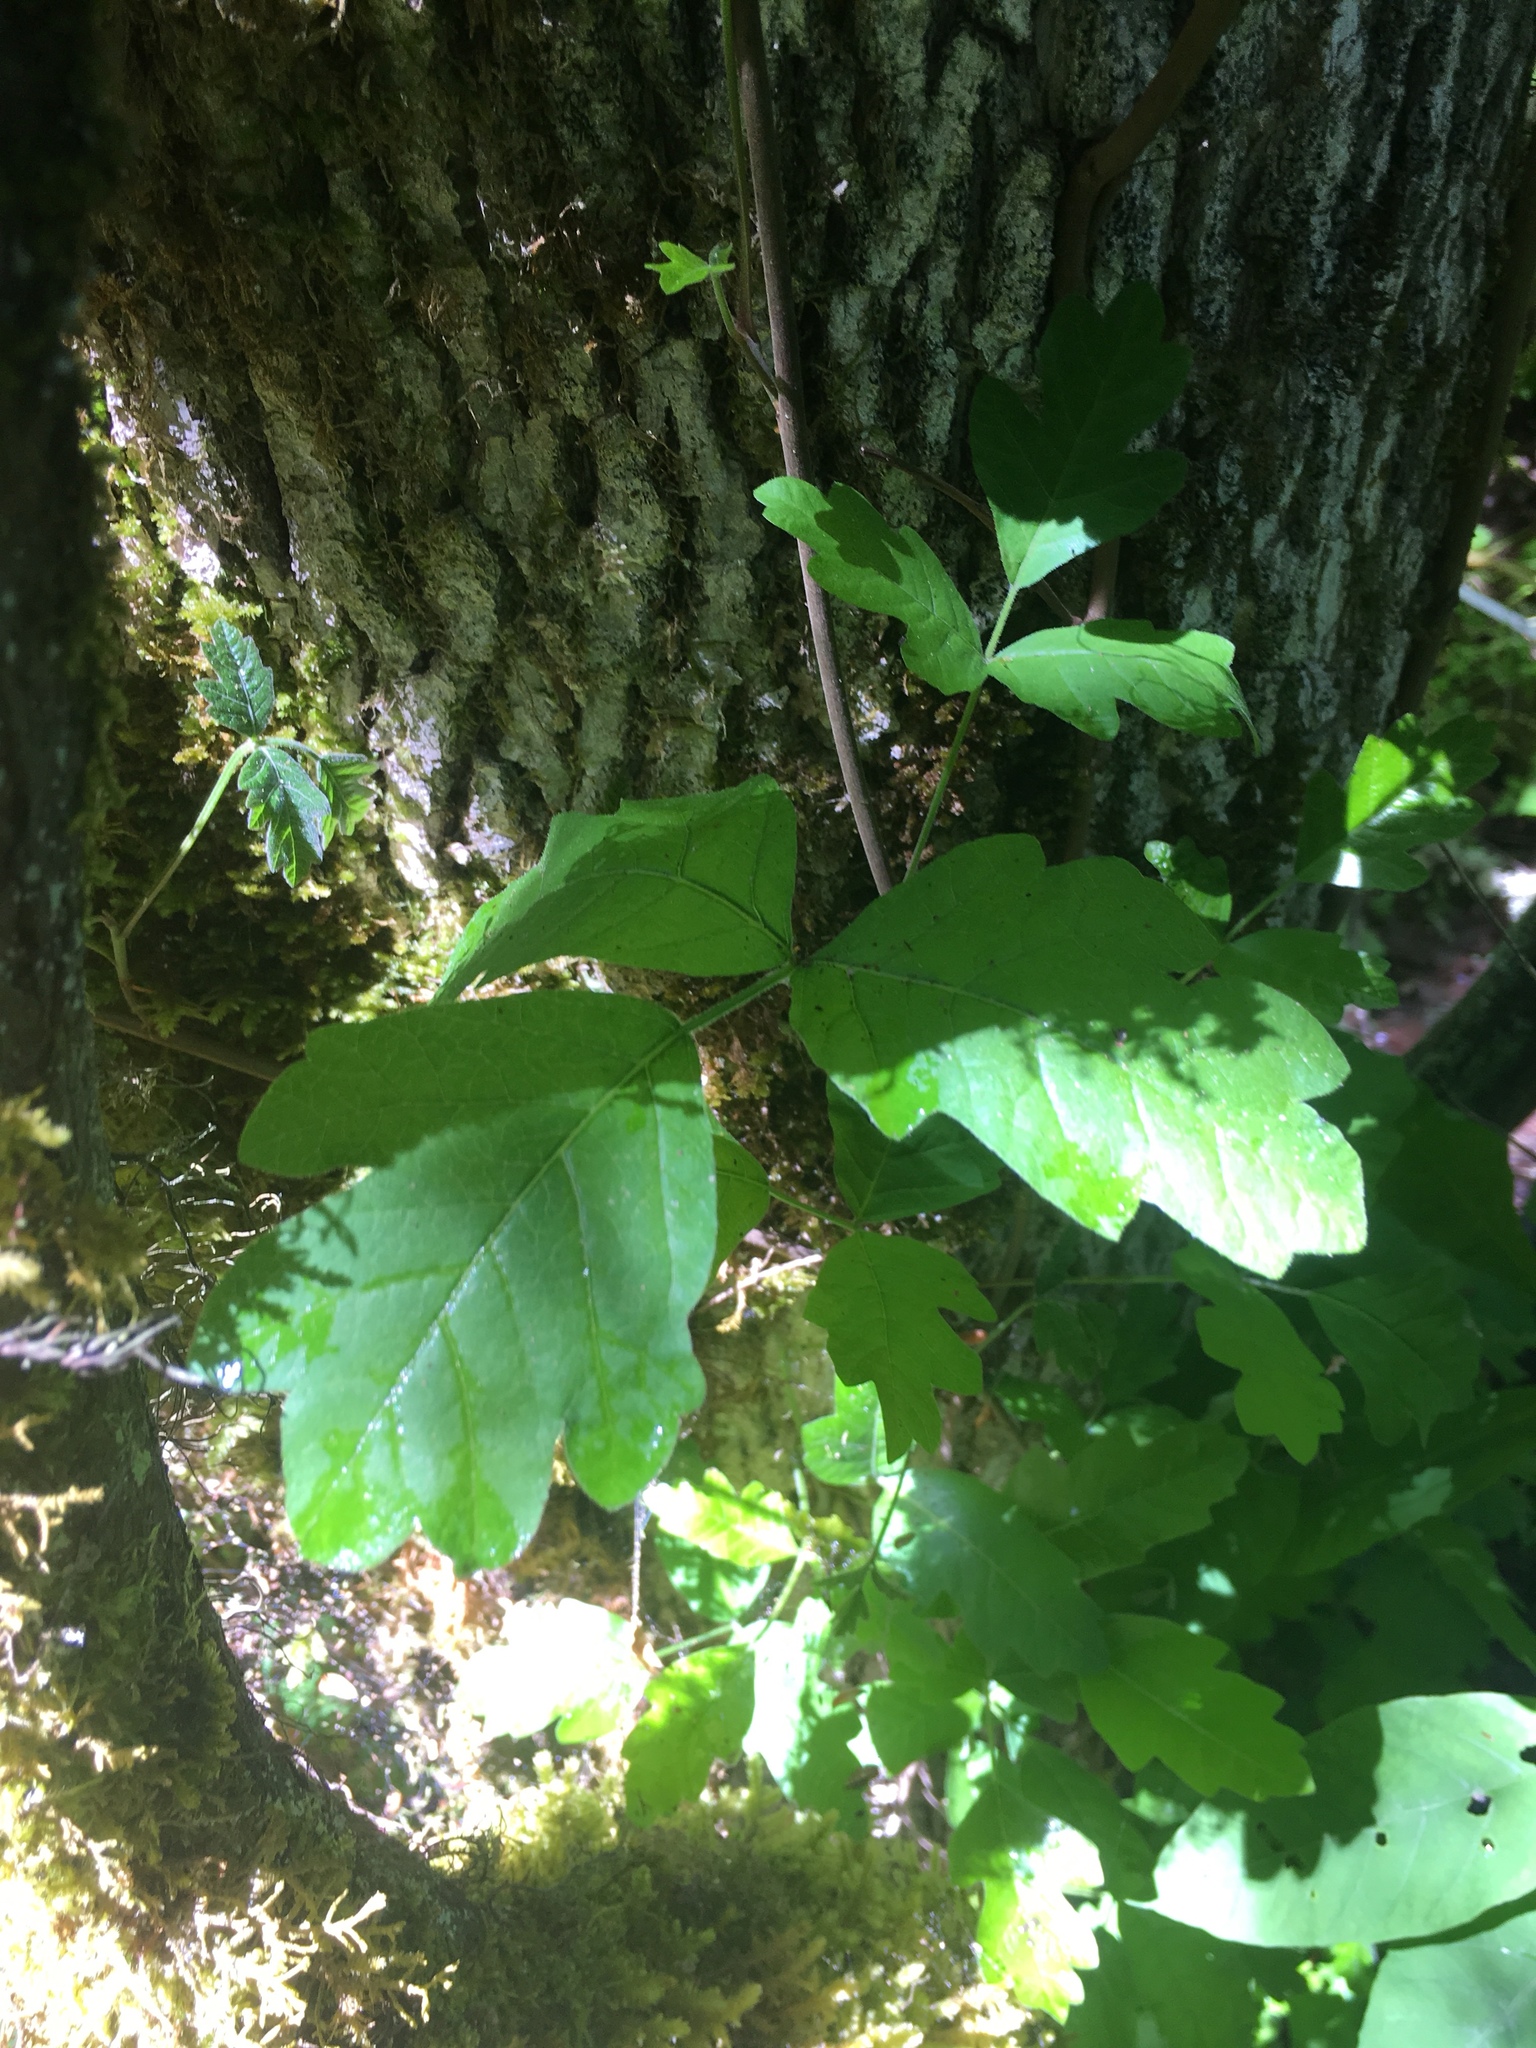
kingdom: Plantae
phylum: Tracheophyta
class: Magnoliopsida
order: Sapindales
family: Anacardiaceae
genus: Toxicodendron
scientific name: Toxicodendron diversilobum
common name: Pacific poison-oak
